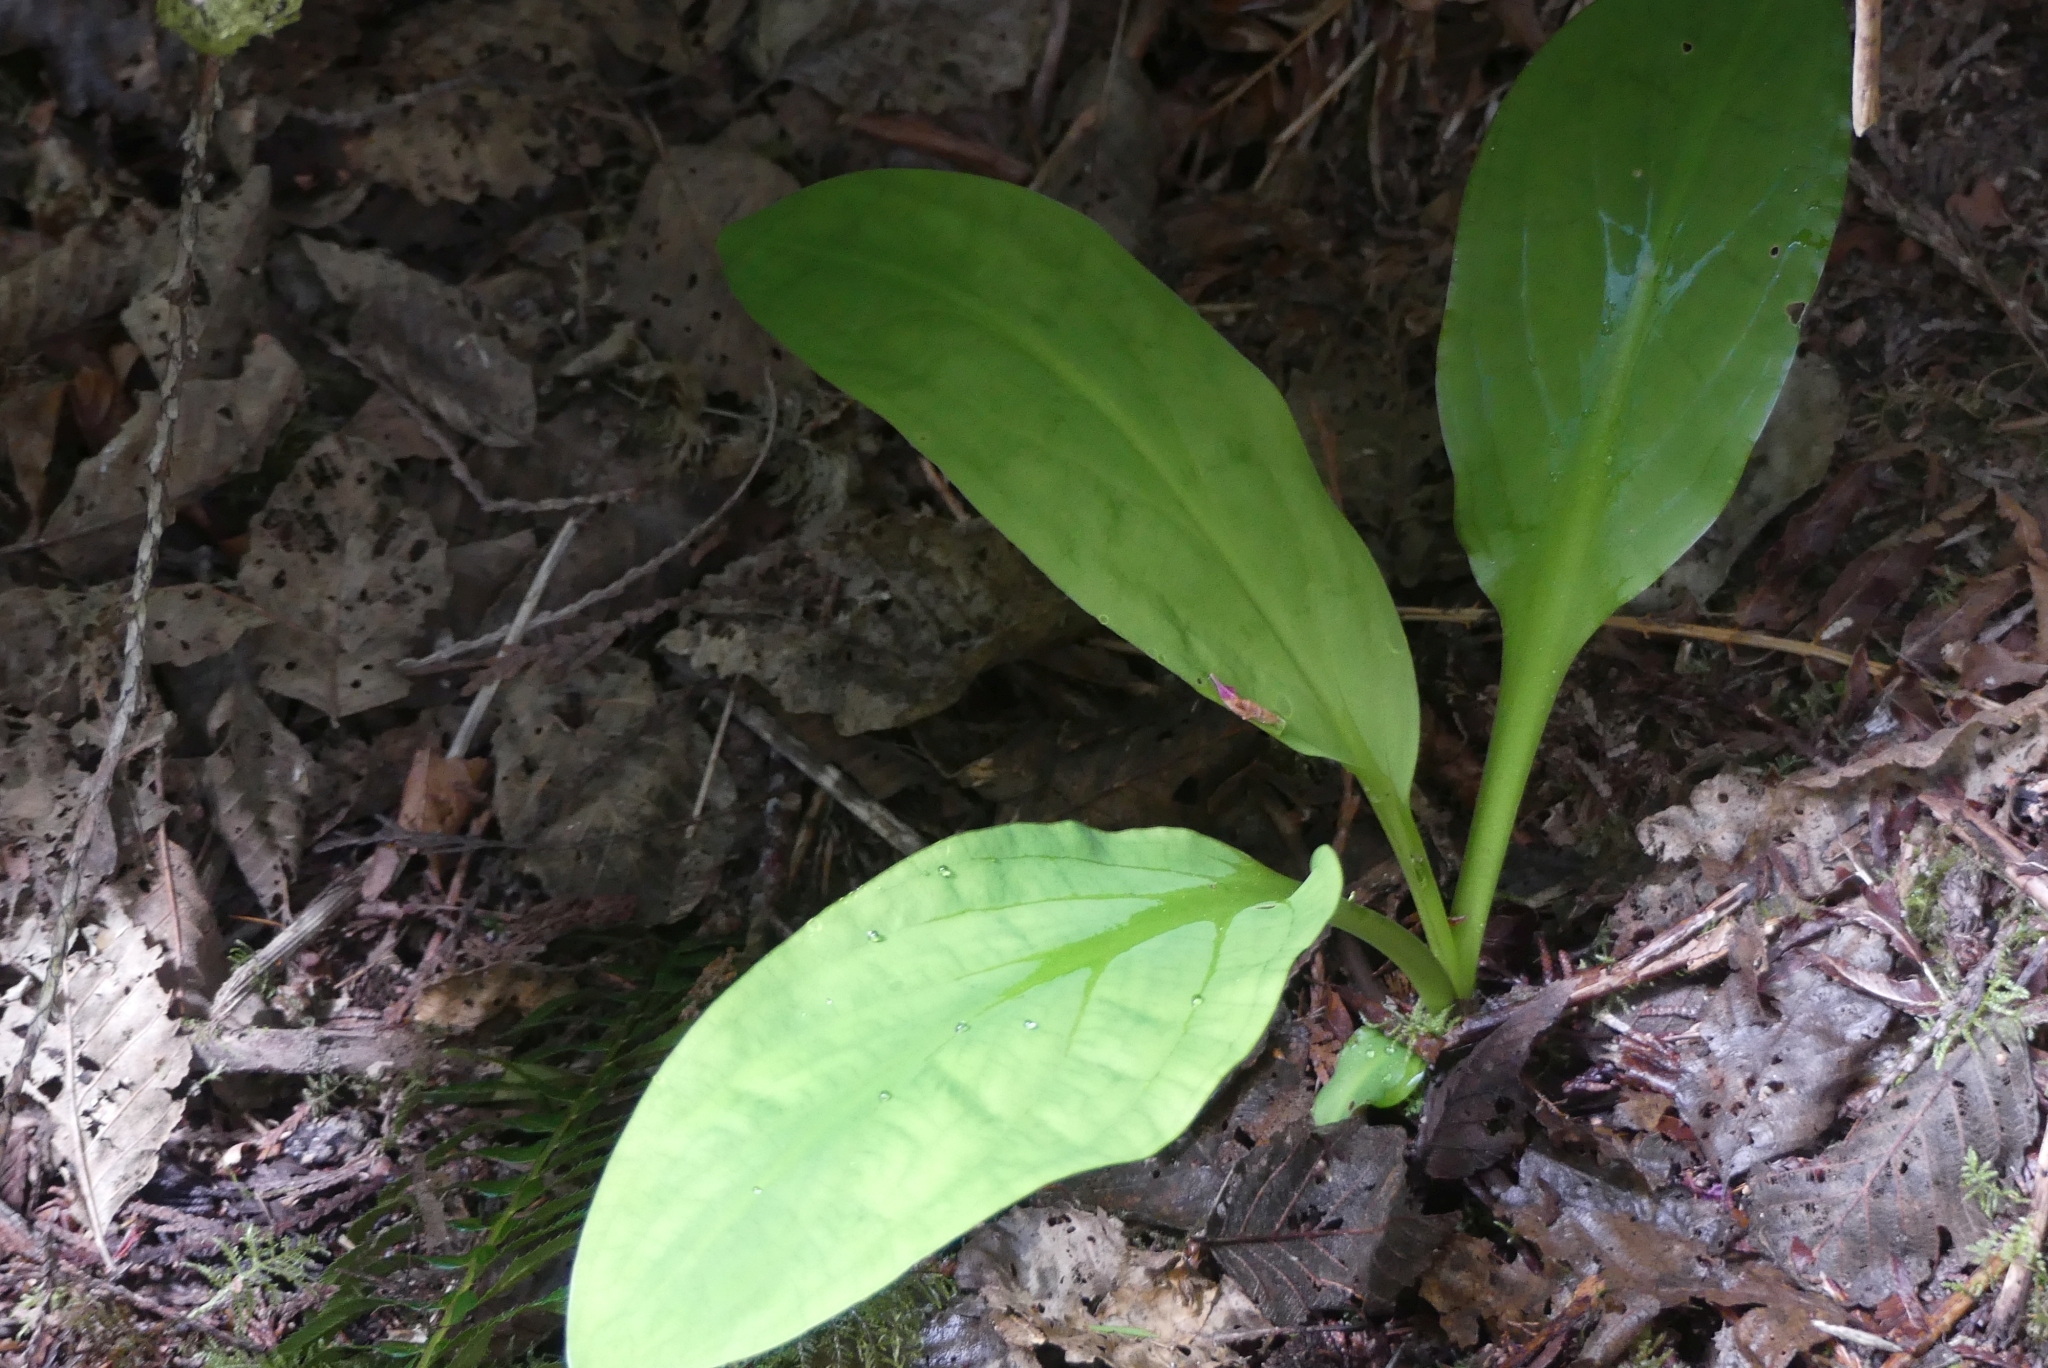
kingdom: Plantae
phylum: Tracheophyta
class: Liliopsida
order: Alismatales
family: Araceae
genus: Lysichiton
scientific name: Lysichiton americanus
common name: American skunk cabbage
